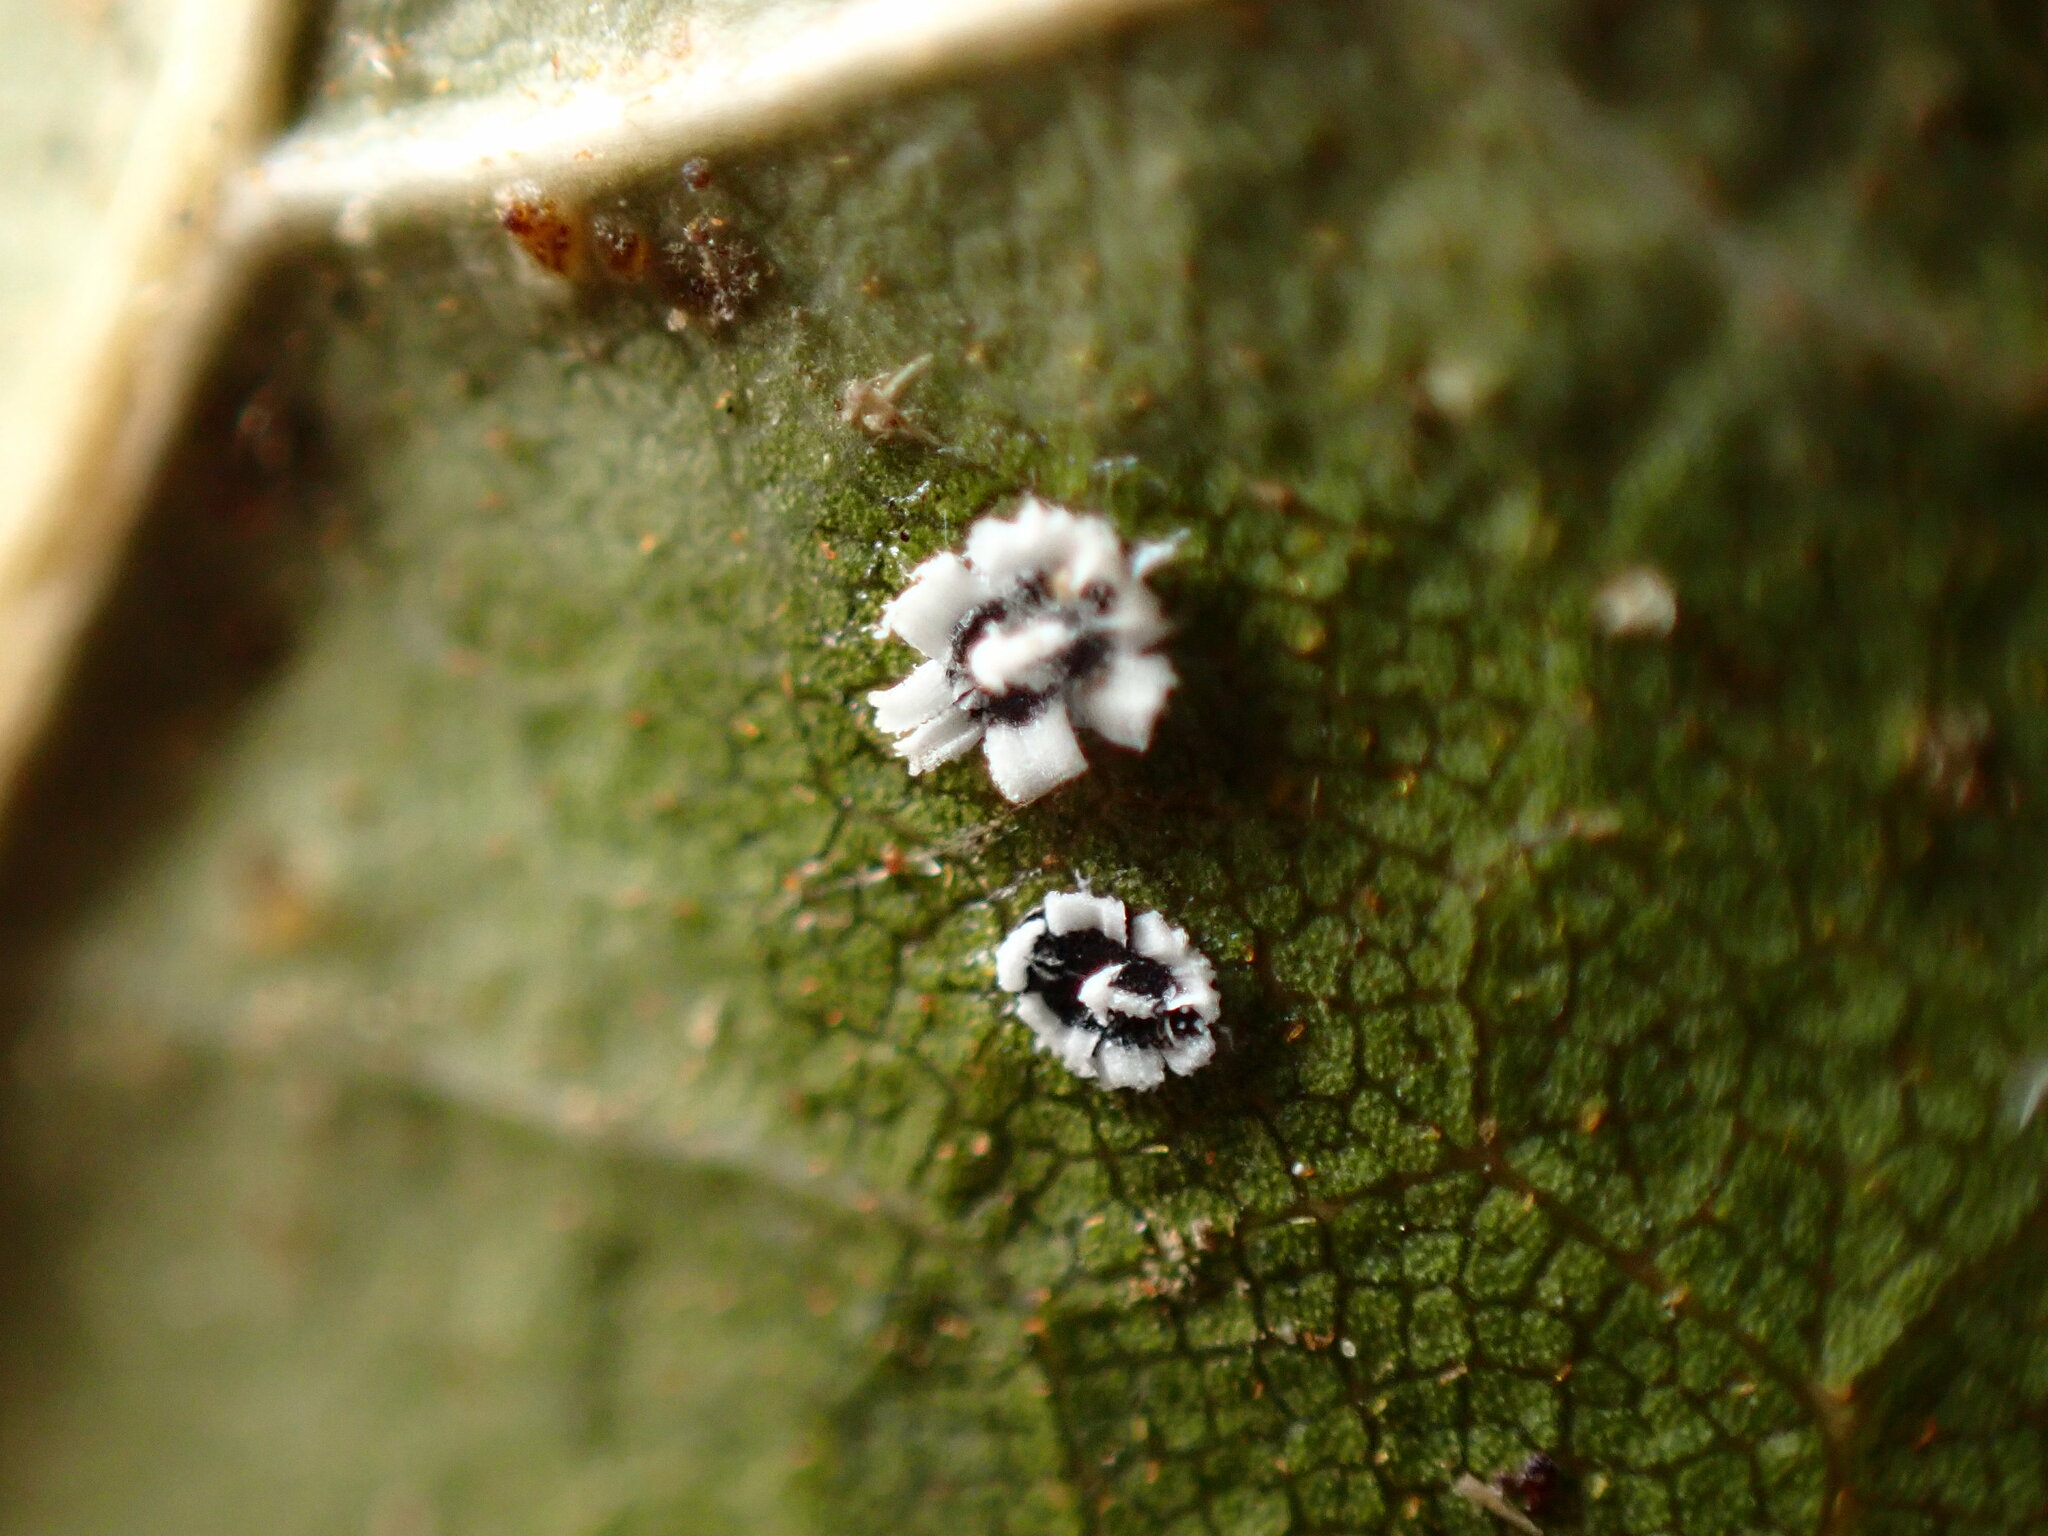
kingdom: Animalia
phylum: Arthropoda
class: Insecta
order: Hemiptera
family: Aleyrodidae
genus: Aleuroplatus
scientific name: Aleuroplatus coronata
